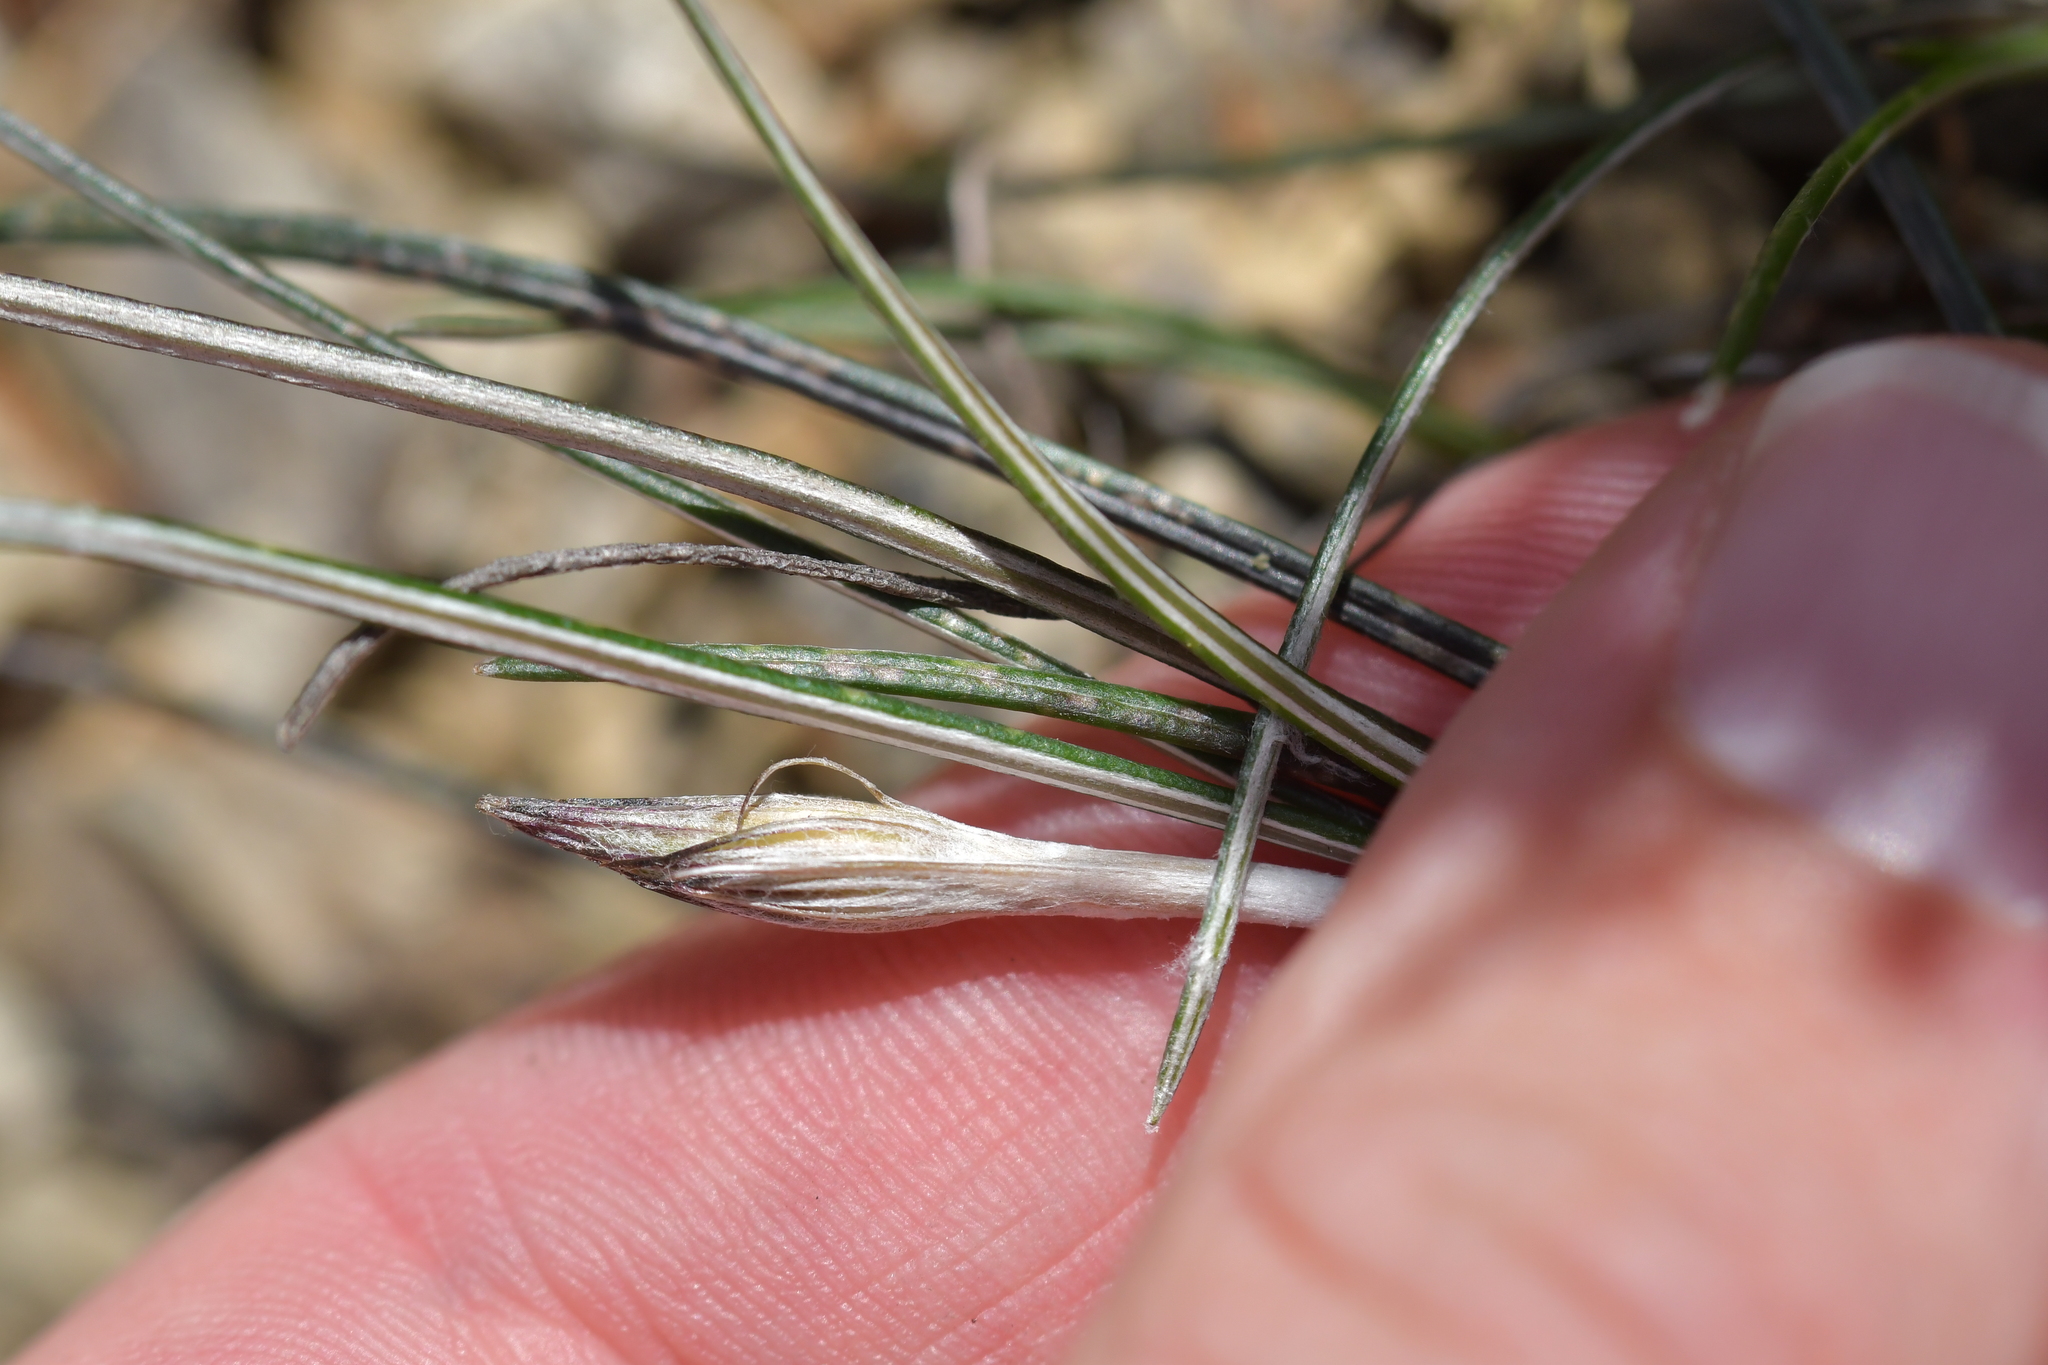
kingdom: Plantae
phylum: Tracheophyta
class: Magnoliopsida
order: Asterales
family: Asteraceae
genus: Celmisia
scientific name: Celmisia gracilenta
